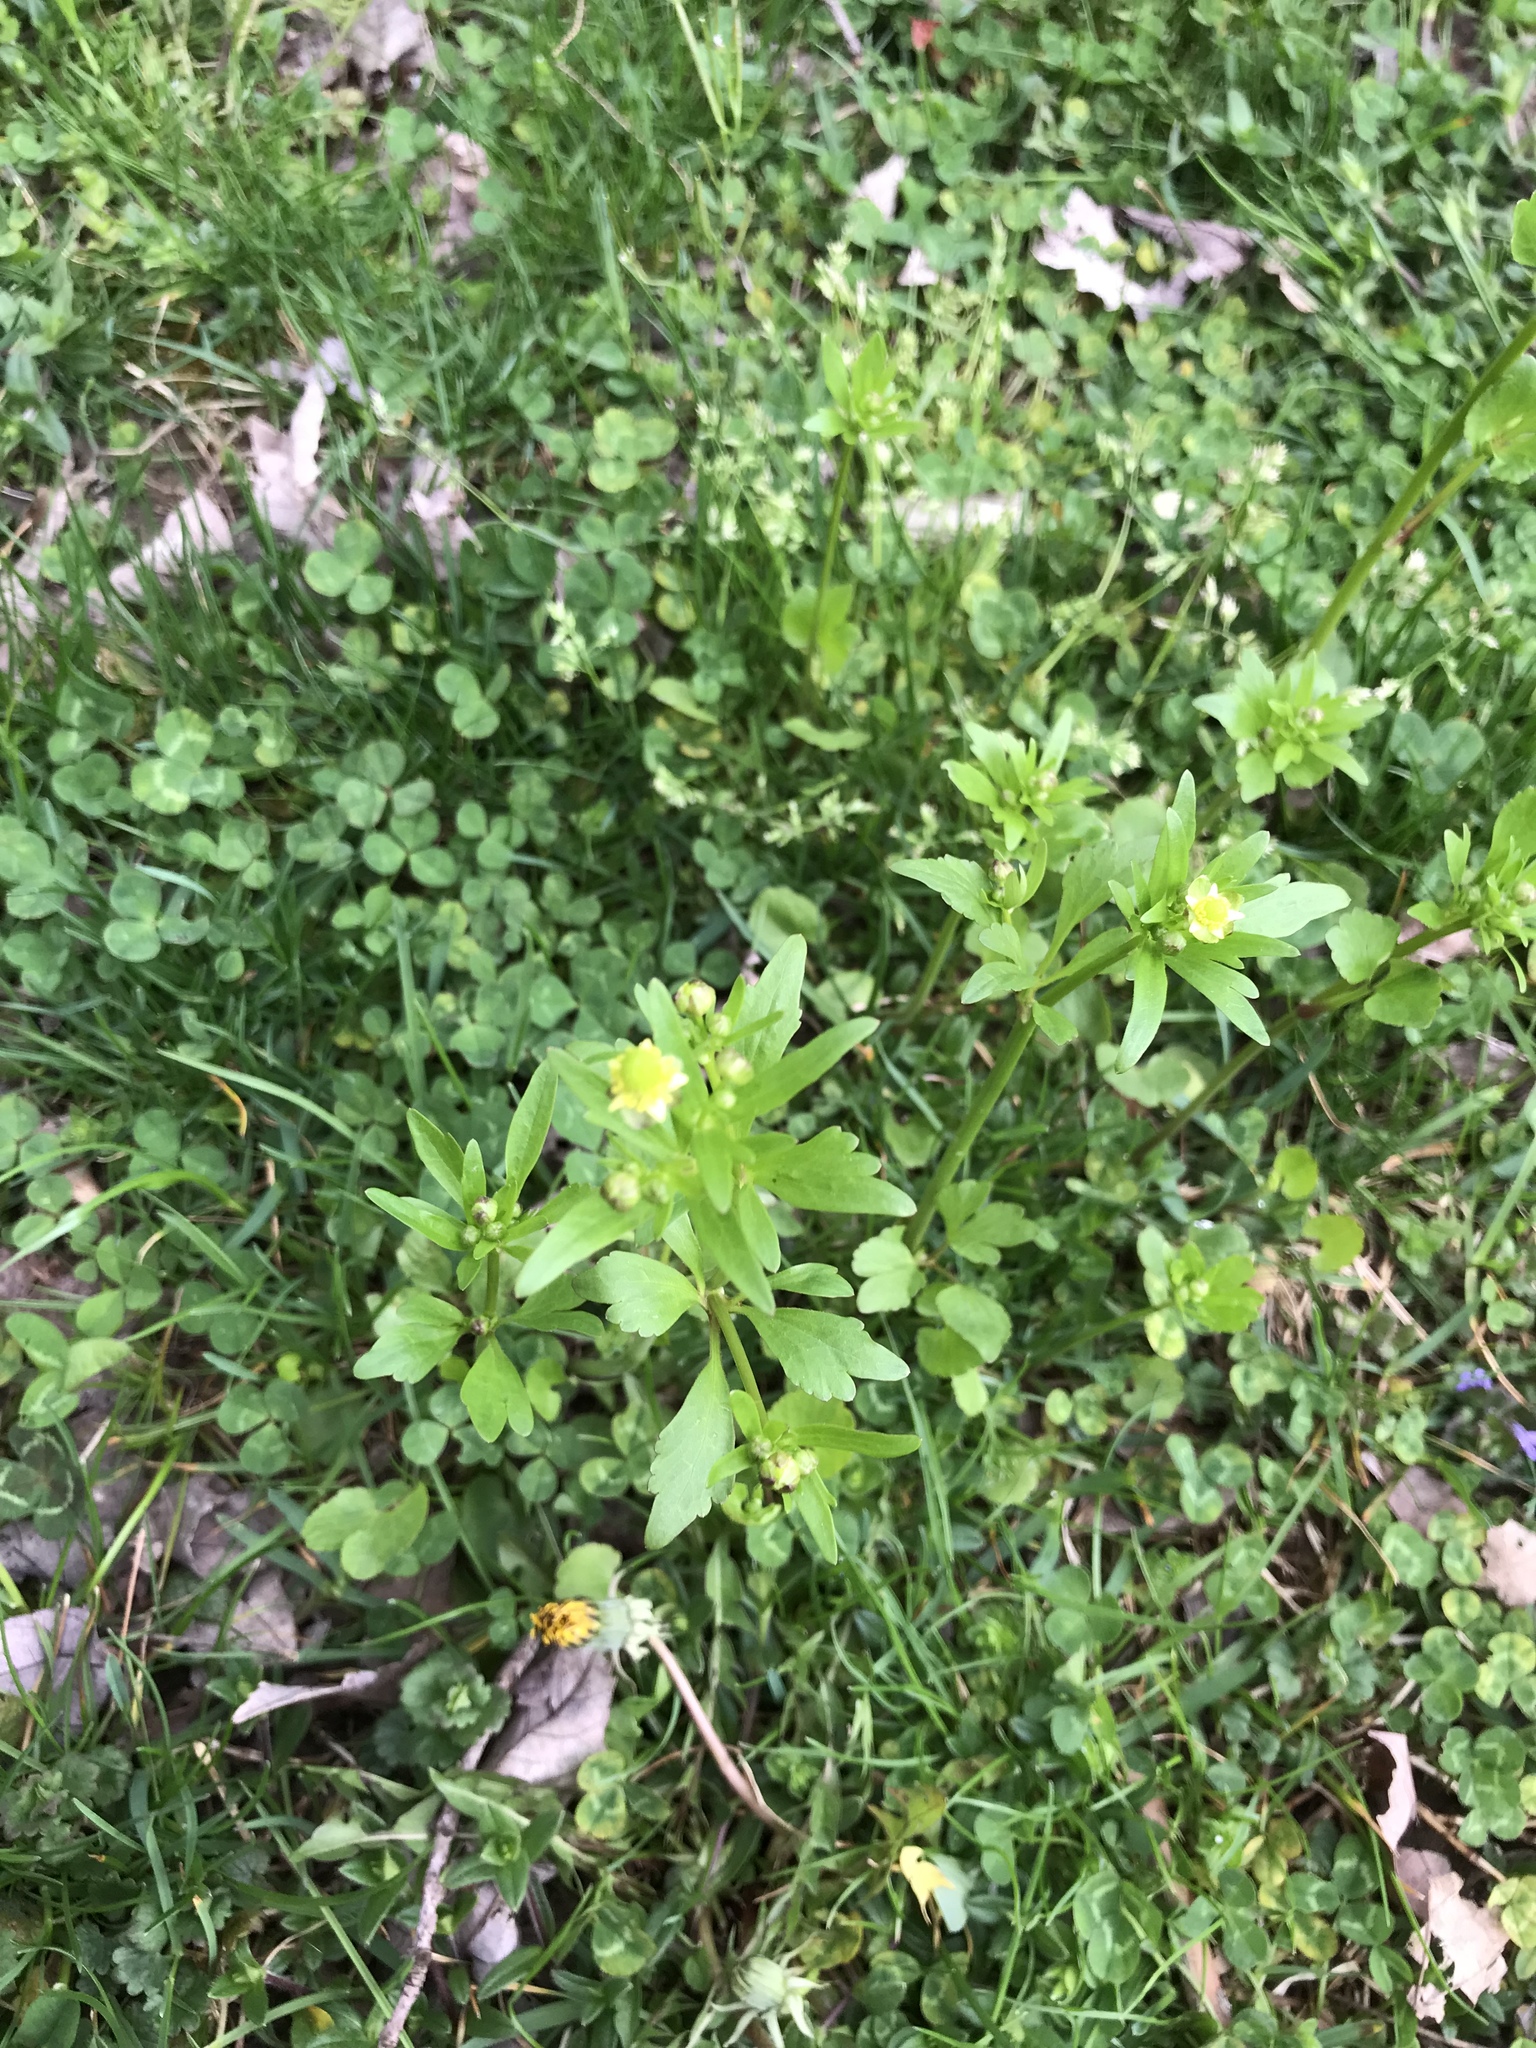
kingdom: Plantae
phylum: Tracheophyta
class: Magnoliopsida
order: Ranunculales
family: Ranunculaceae
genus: Ranunculus
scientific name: Ranunculus abortivus
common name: Early wood buttercup
